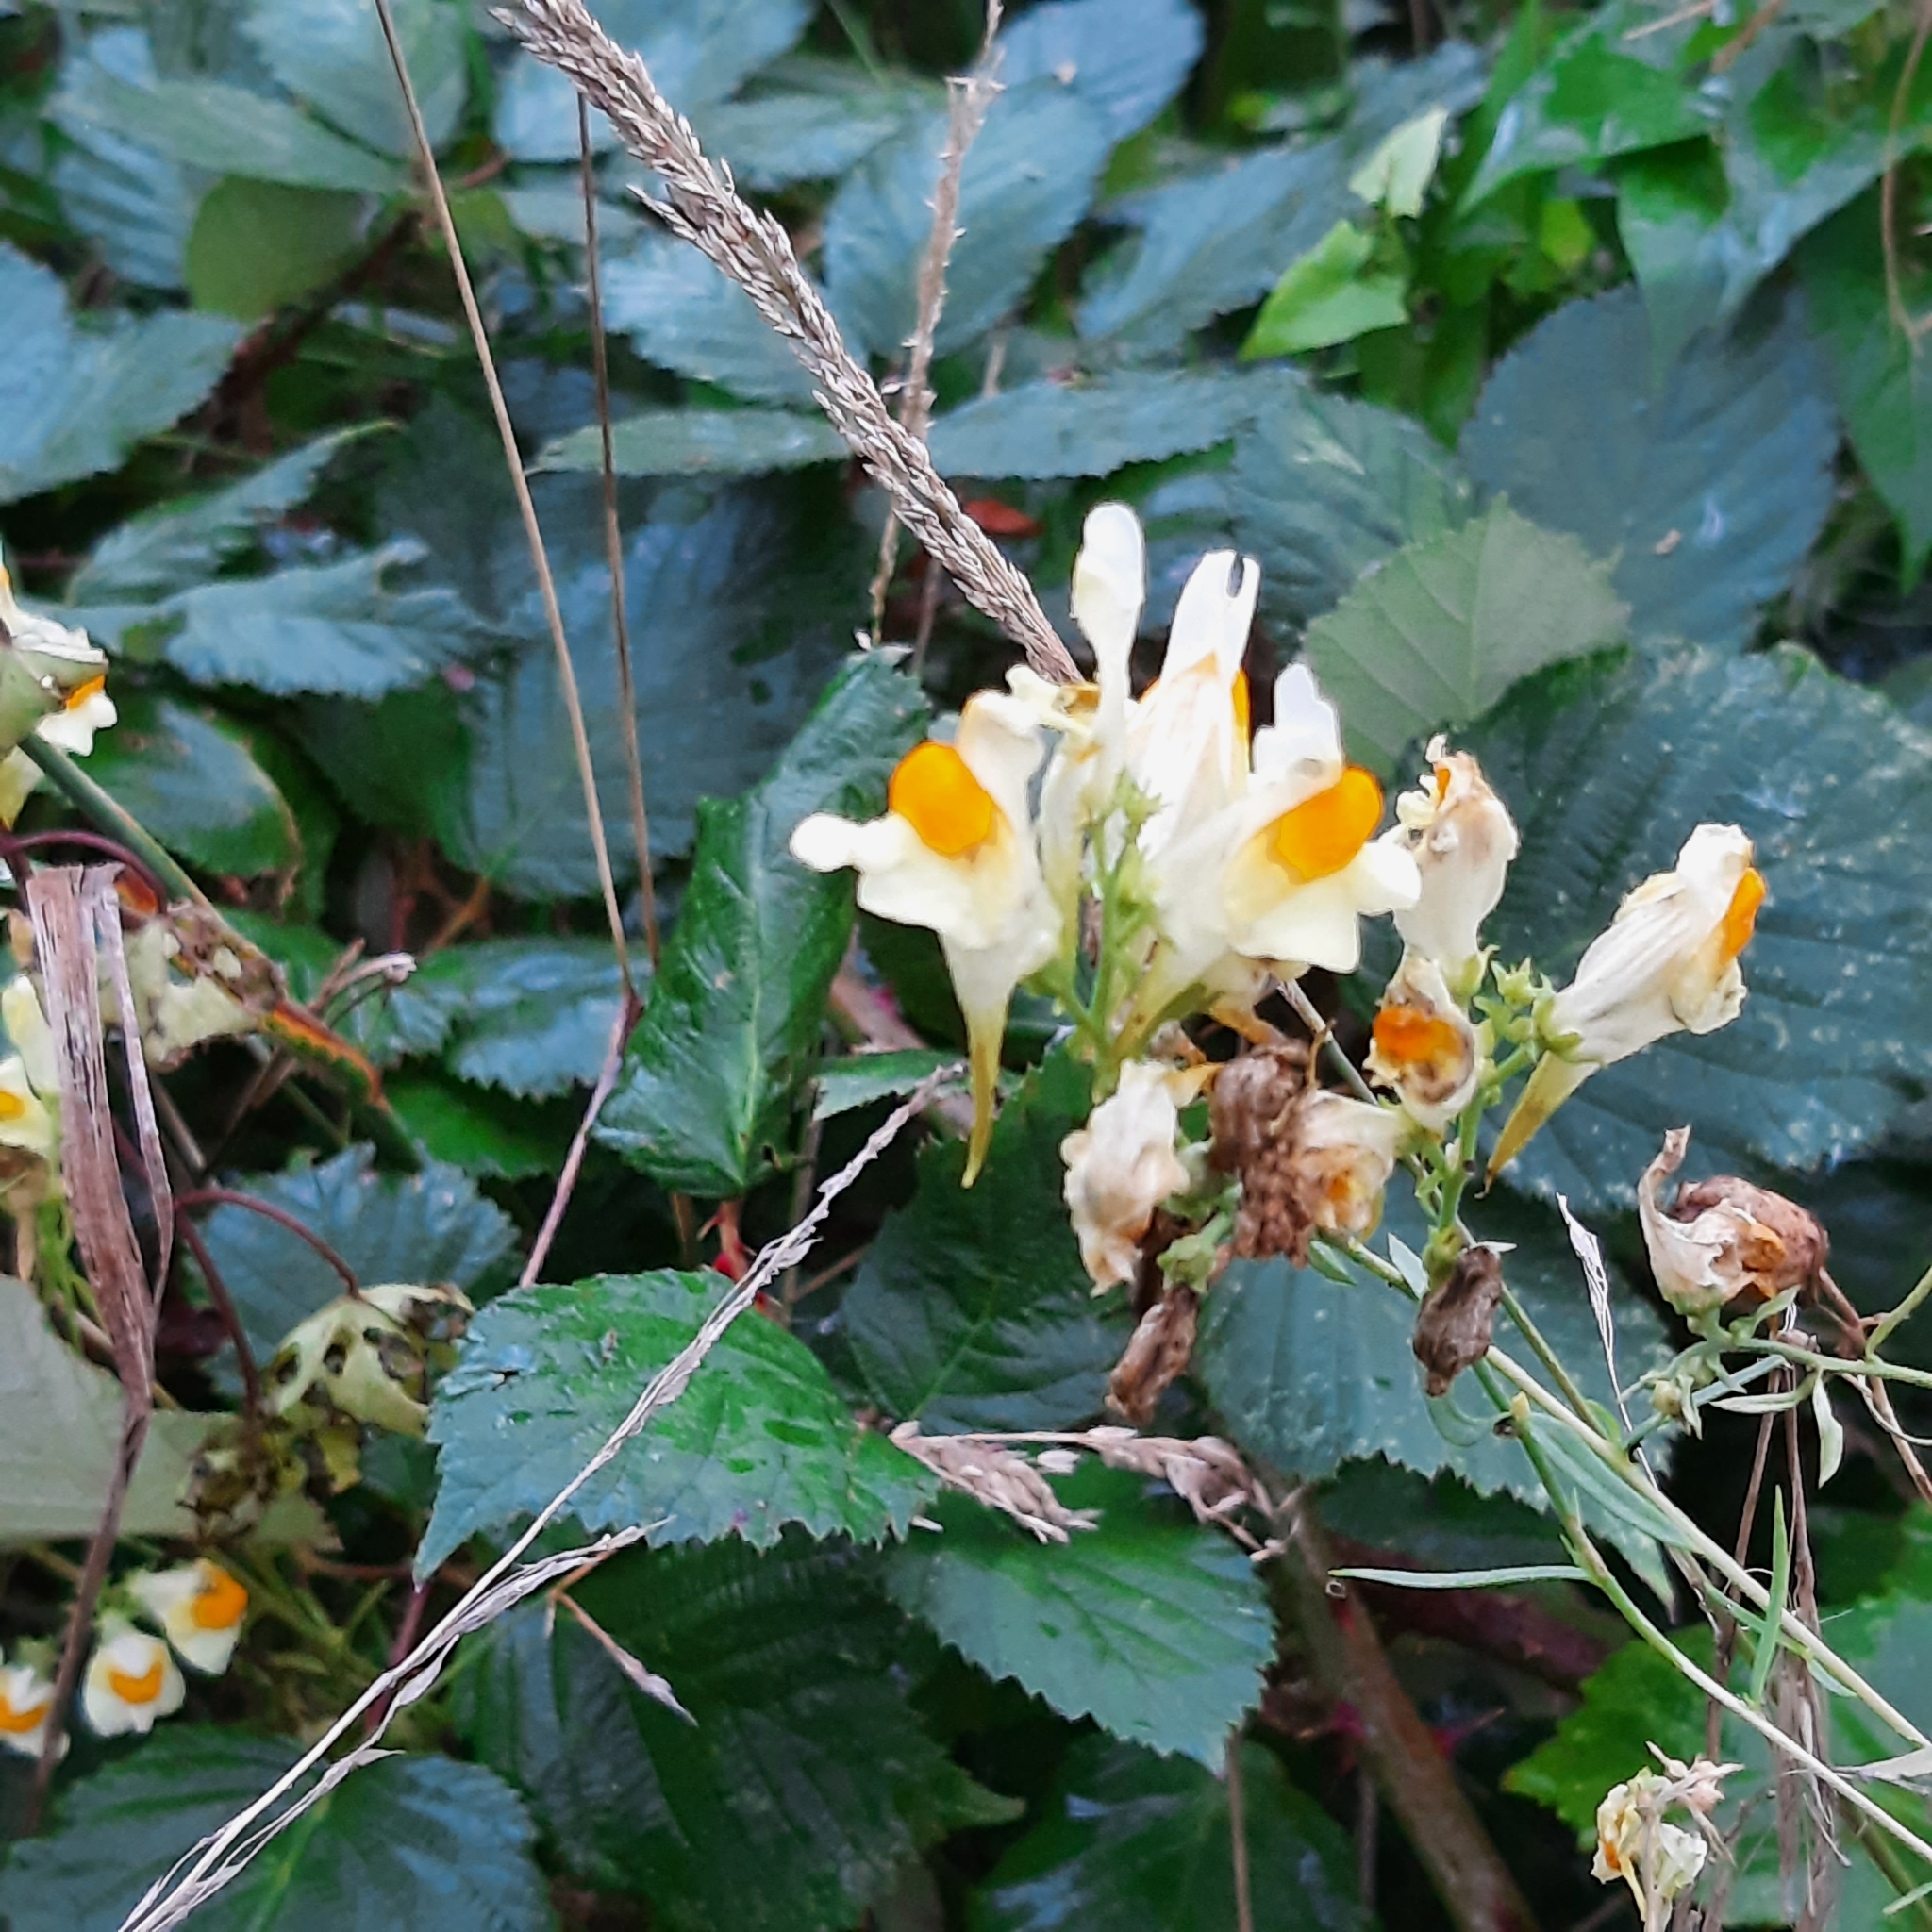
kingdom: Plantae
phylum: Tracheophyta
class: Magnoliopsida
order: Lamiales
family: Plantaginaceae
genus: Linaria
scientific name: Linaria vulgaris
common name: Butter and eggs
